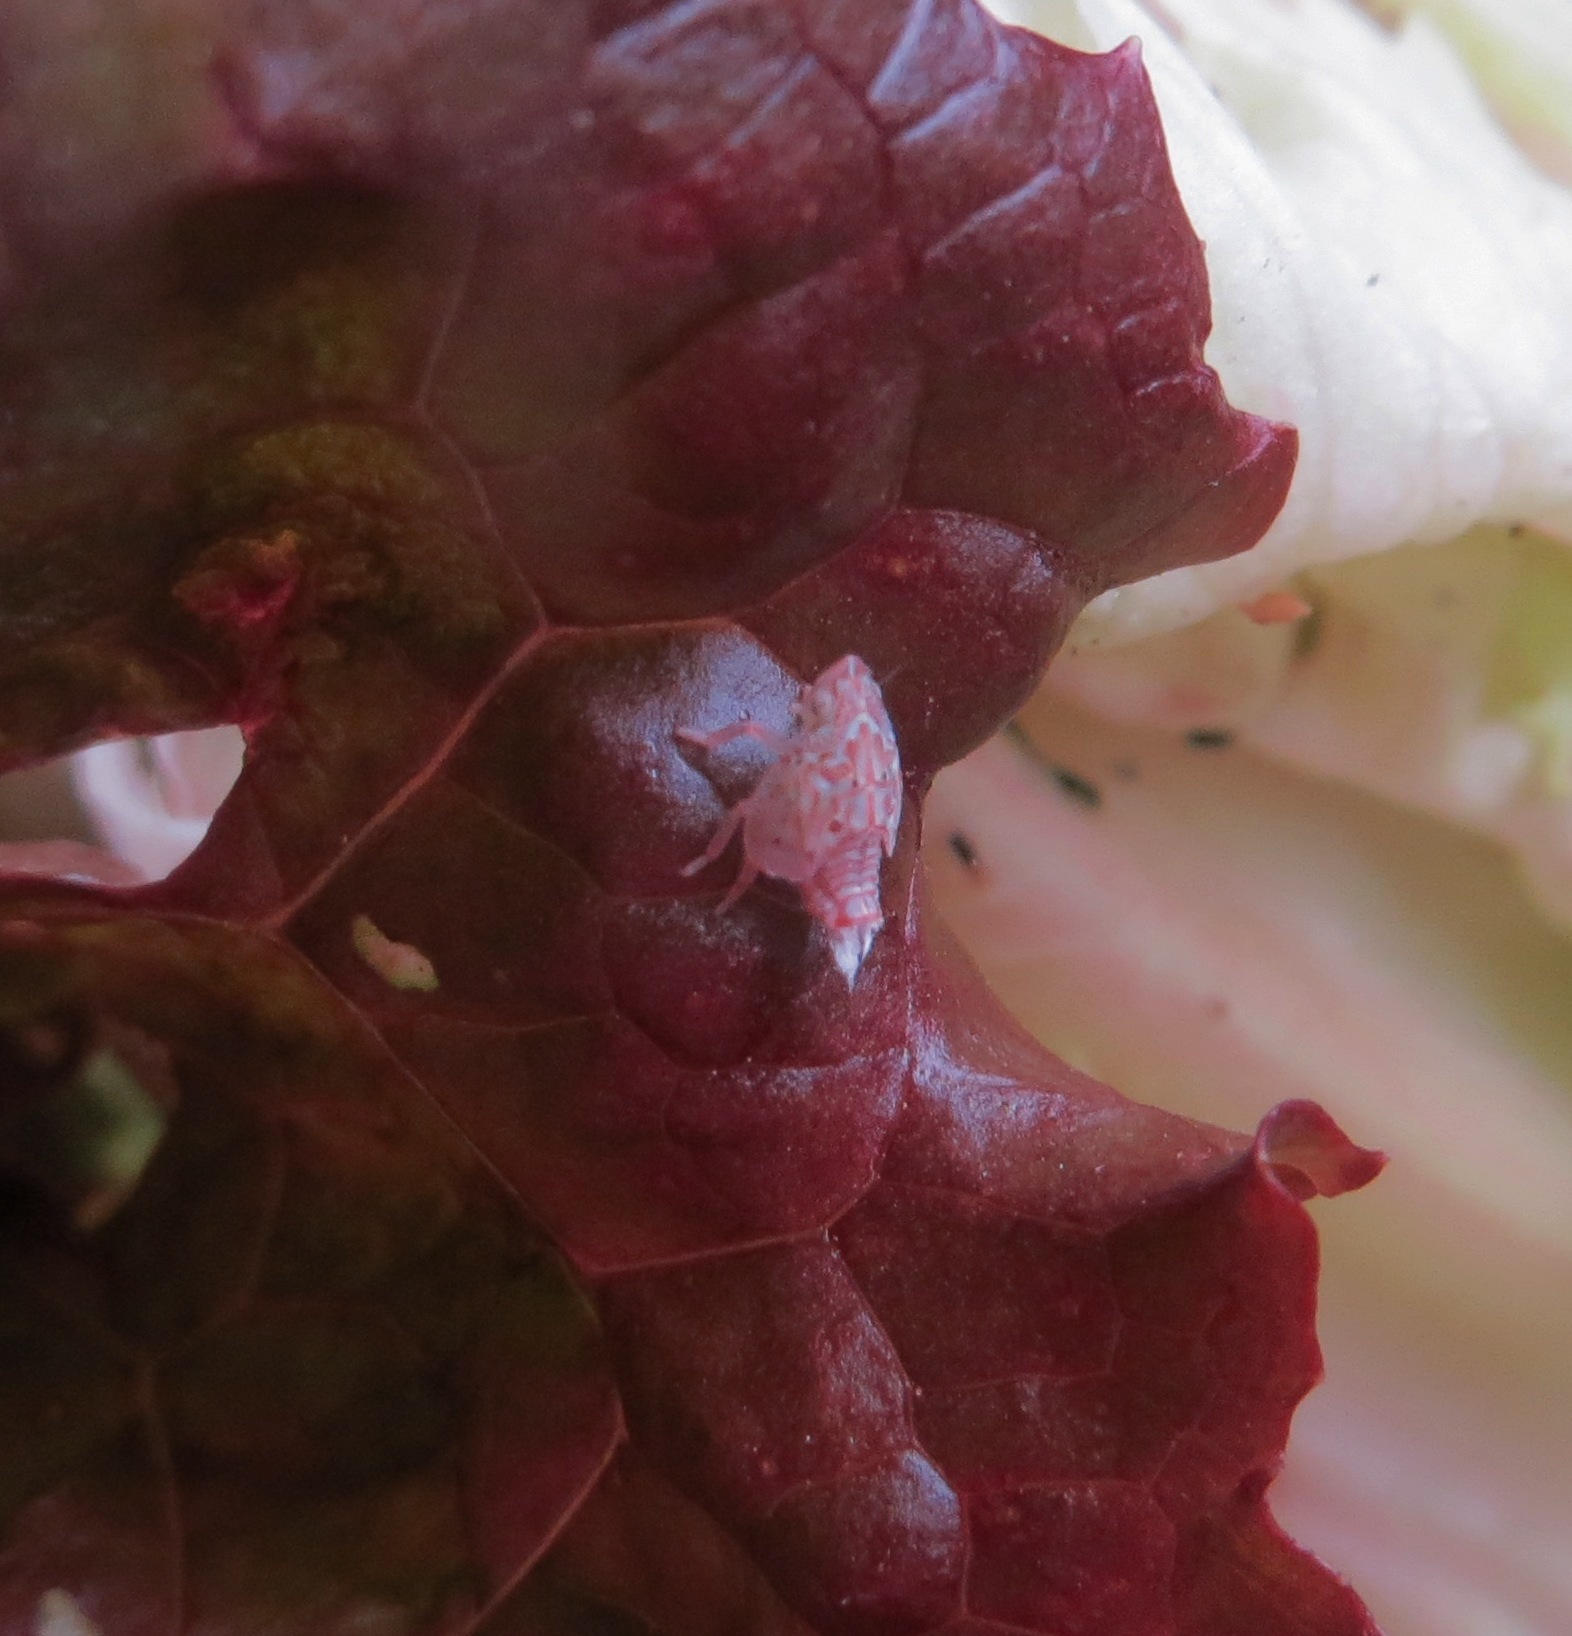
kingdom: Animalia
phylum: Arthropoda
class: Insecta
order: Hemiptera
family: Flatidae
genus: Siphanta
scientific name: Siphanta acuta
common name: Torpedo bug
